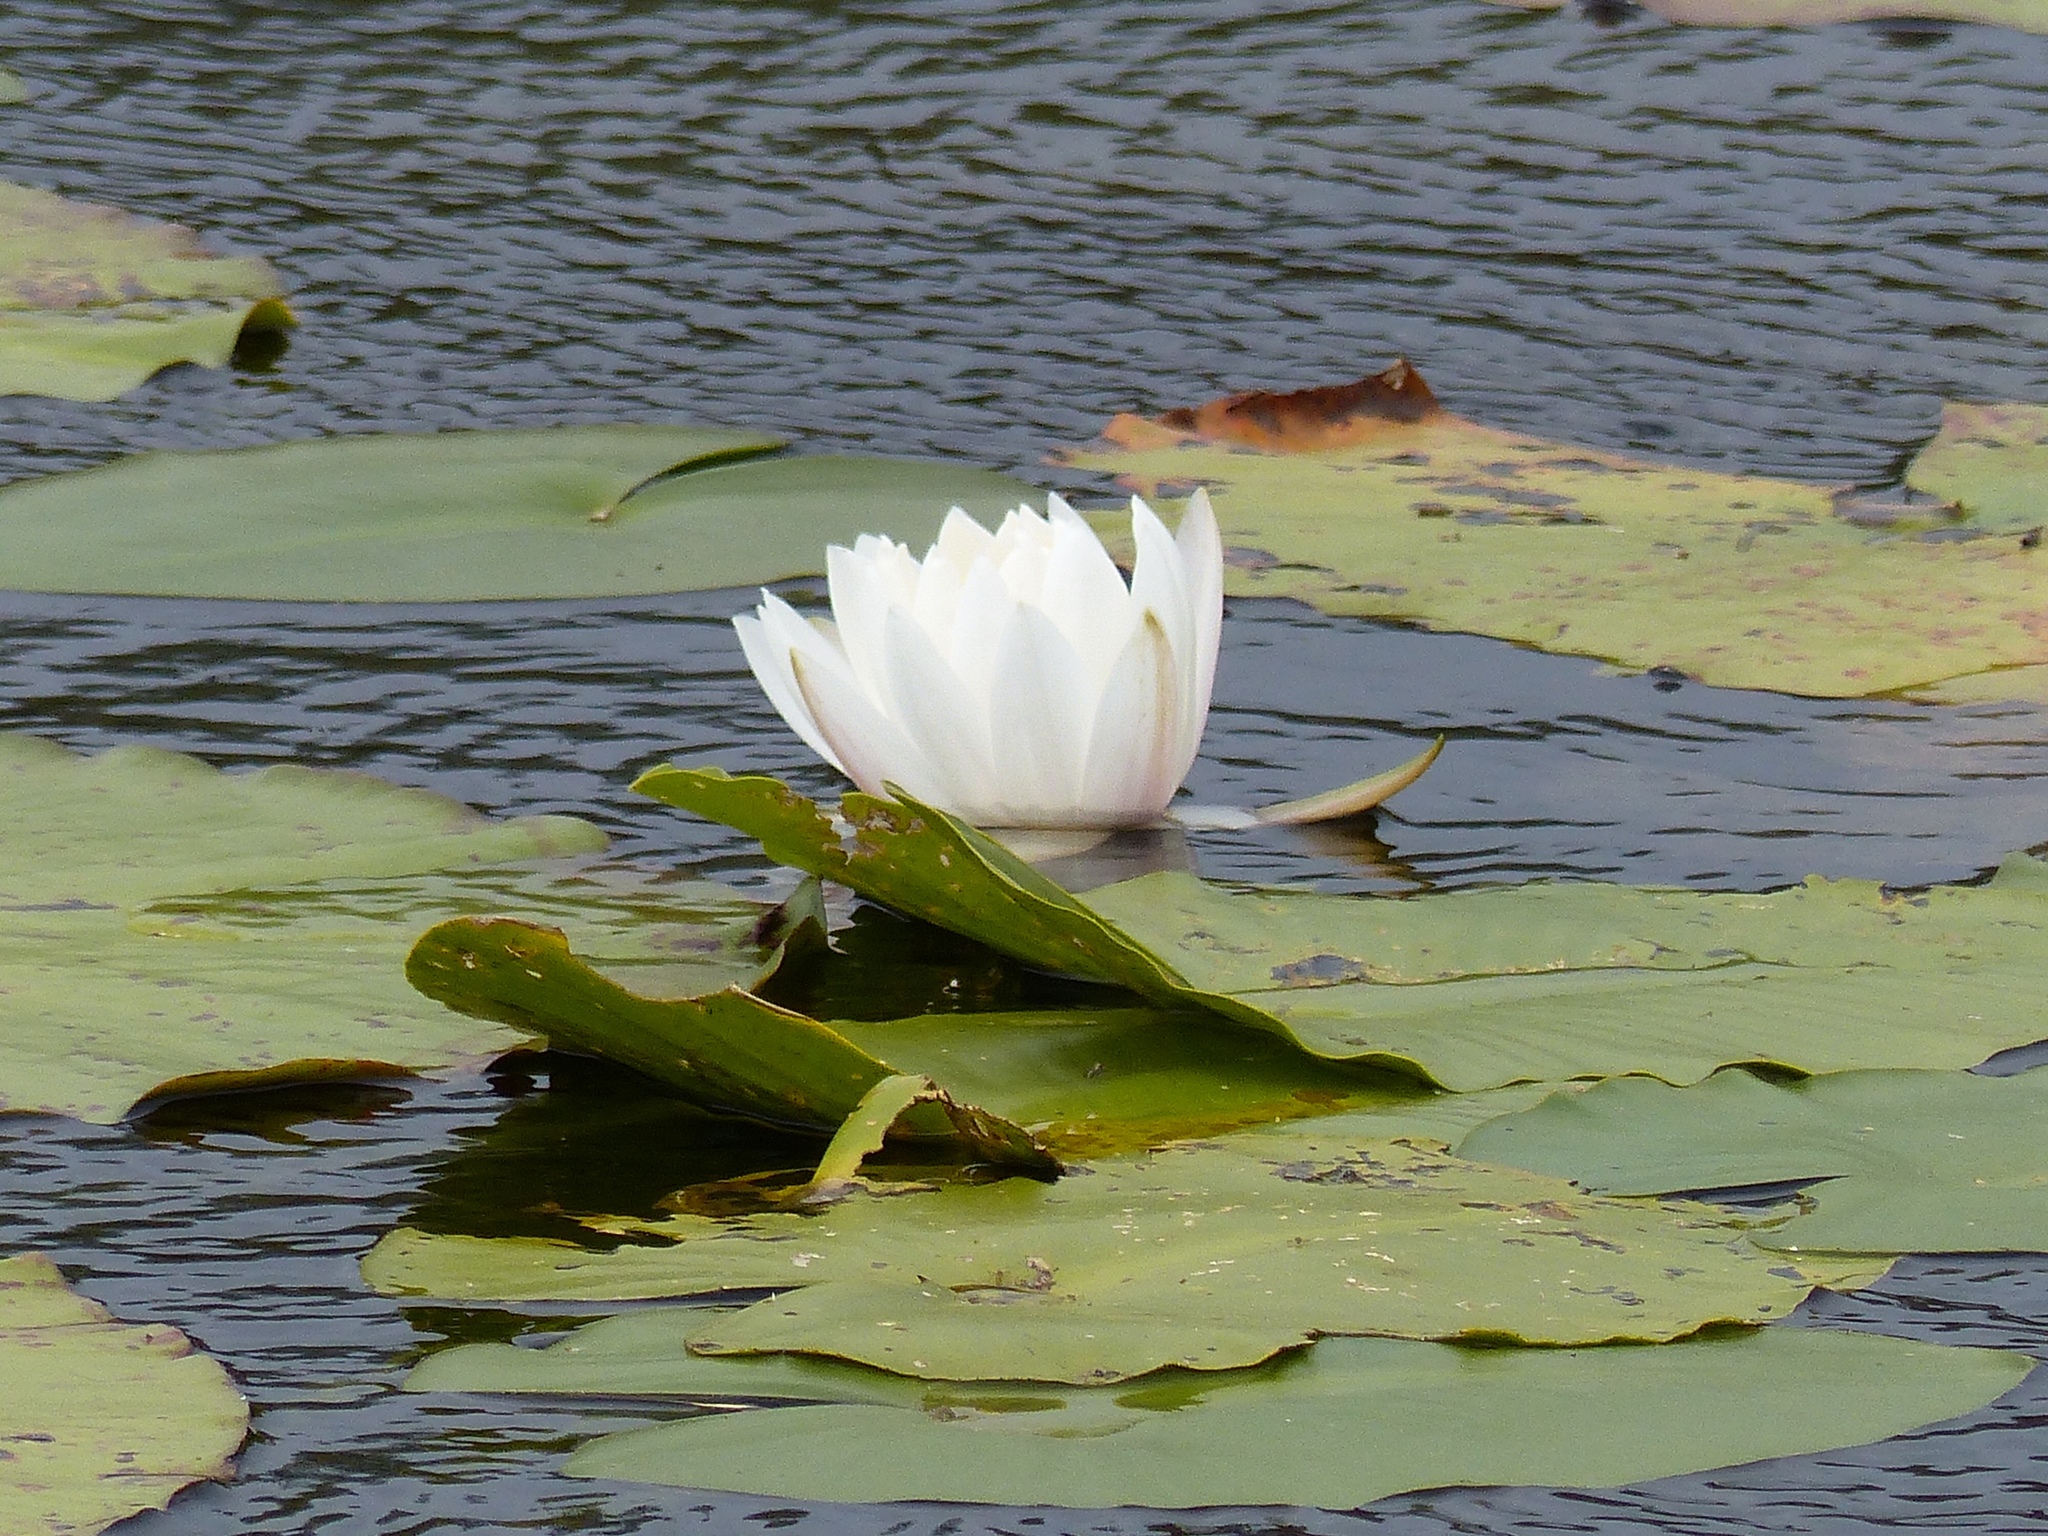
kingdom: Plantae
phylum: Tracheophyta
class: Magnoliopsida
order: Nymphaeales
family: Nymphaeaceae
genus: Nymphaea
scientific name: Nymphaea odorata
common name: Fragrant water-lily
